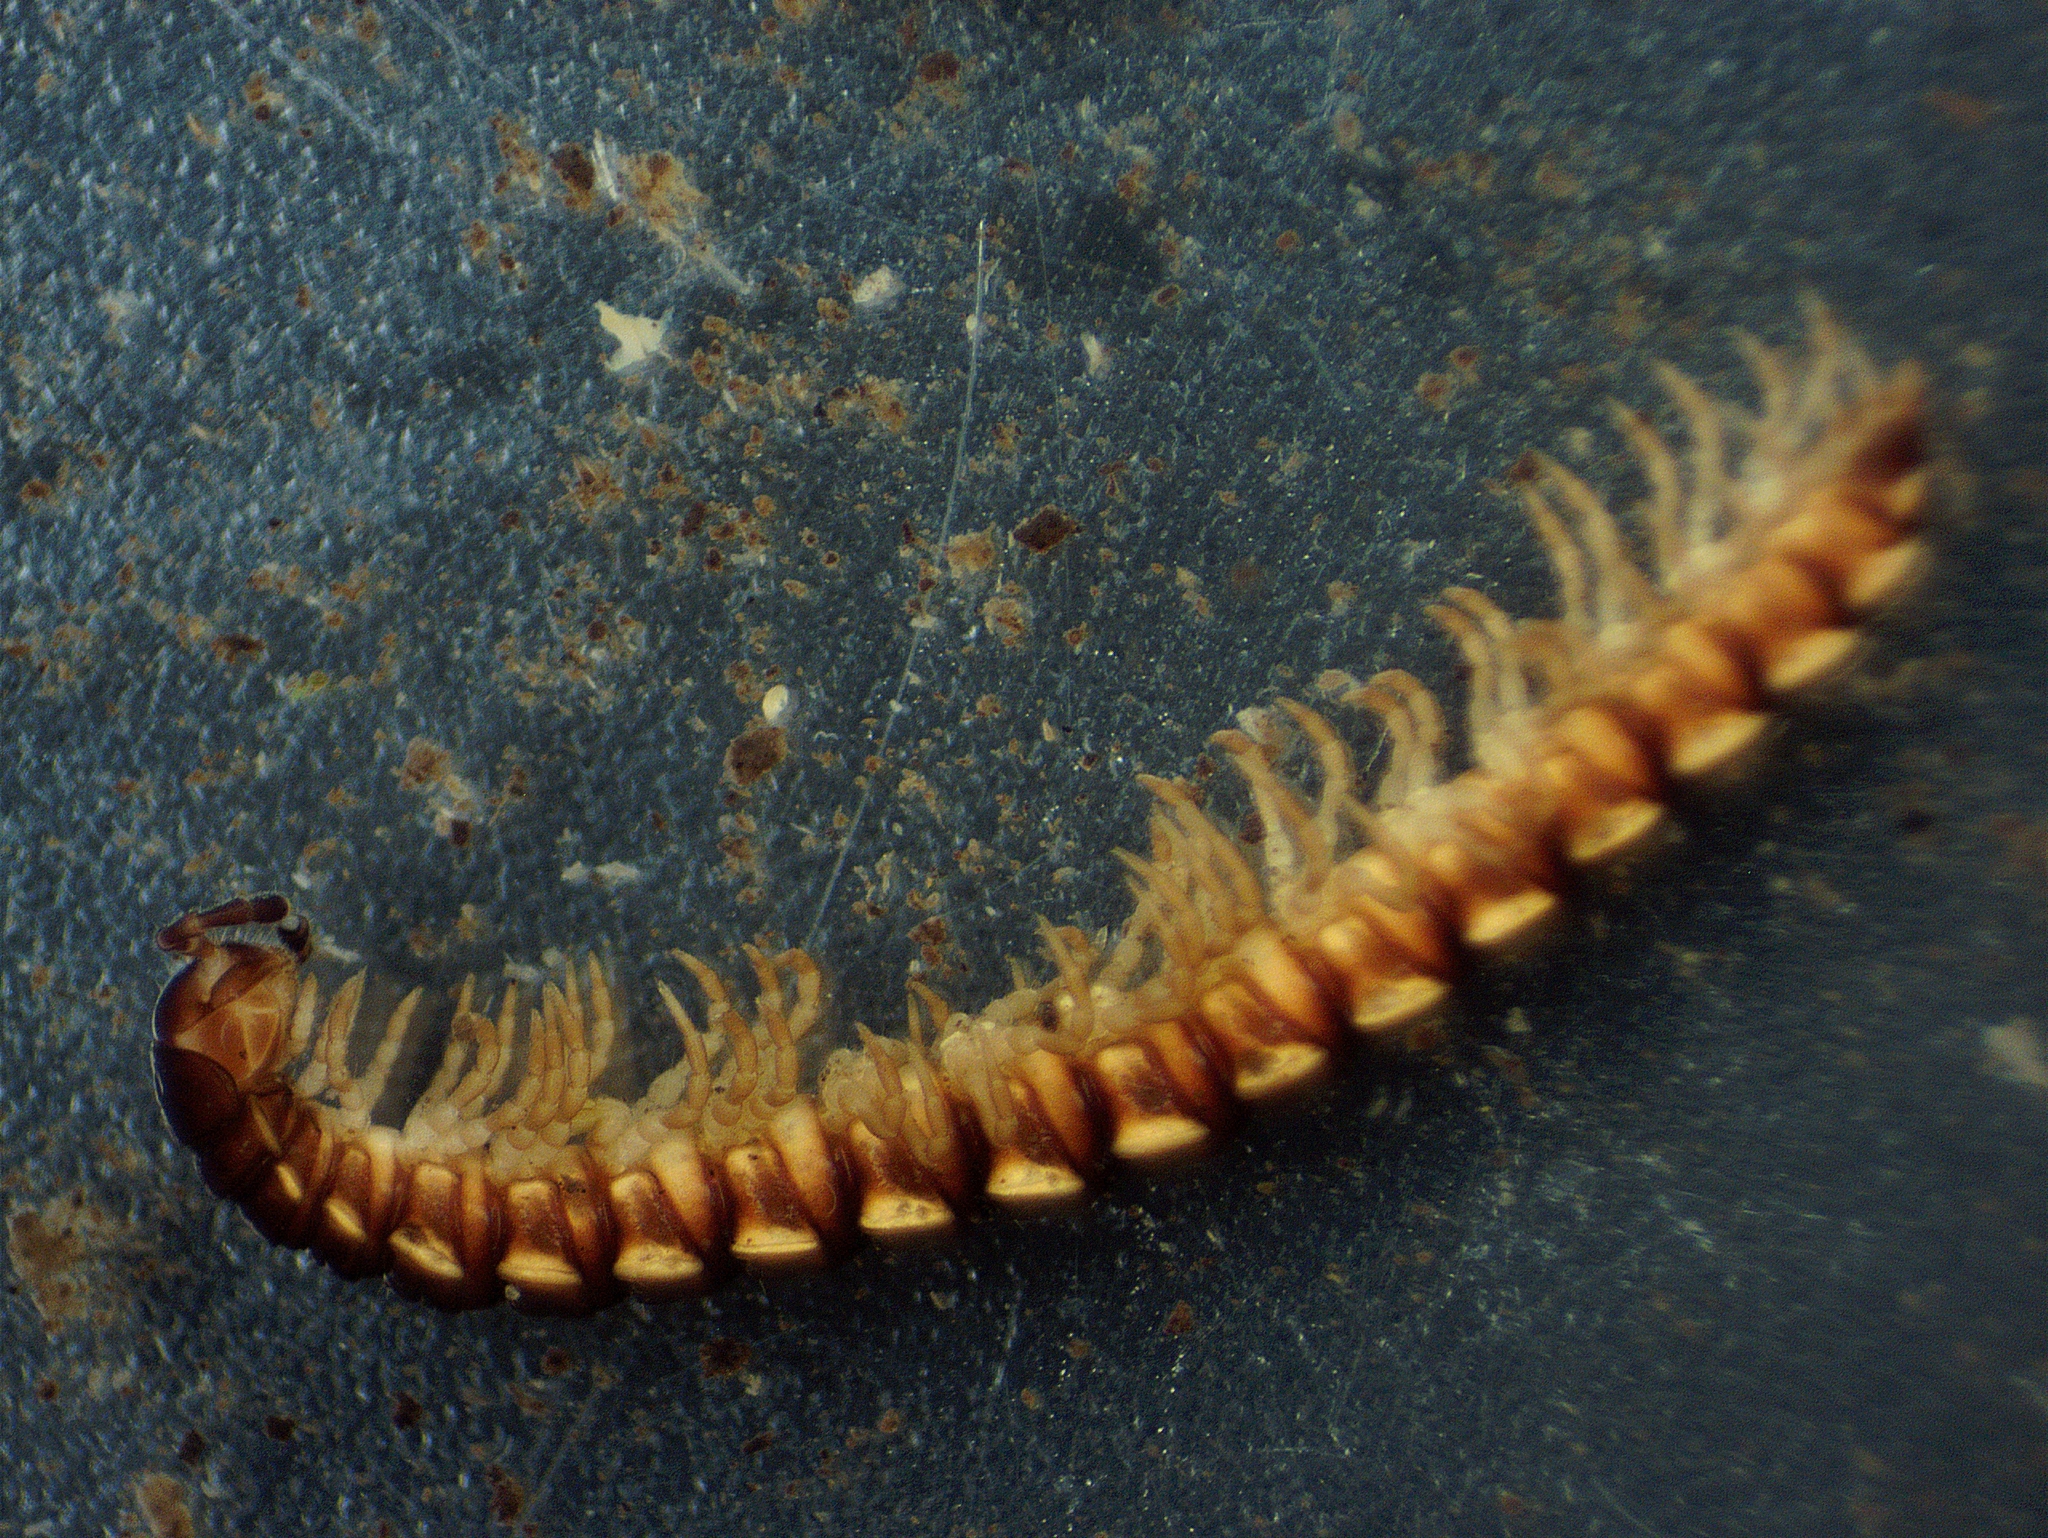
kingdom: Animalia
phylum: Arthropoda
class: Diplopoda
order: Polydesmida
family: Paradoxosomatidae
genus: Oxidus
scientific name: Oxidus gracilis
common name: Greenhouse millipede
